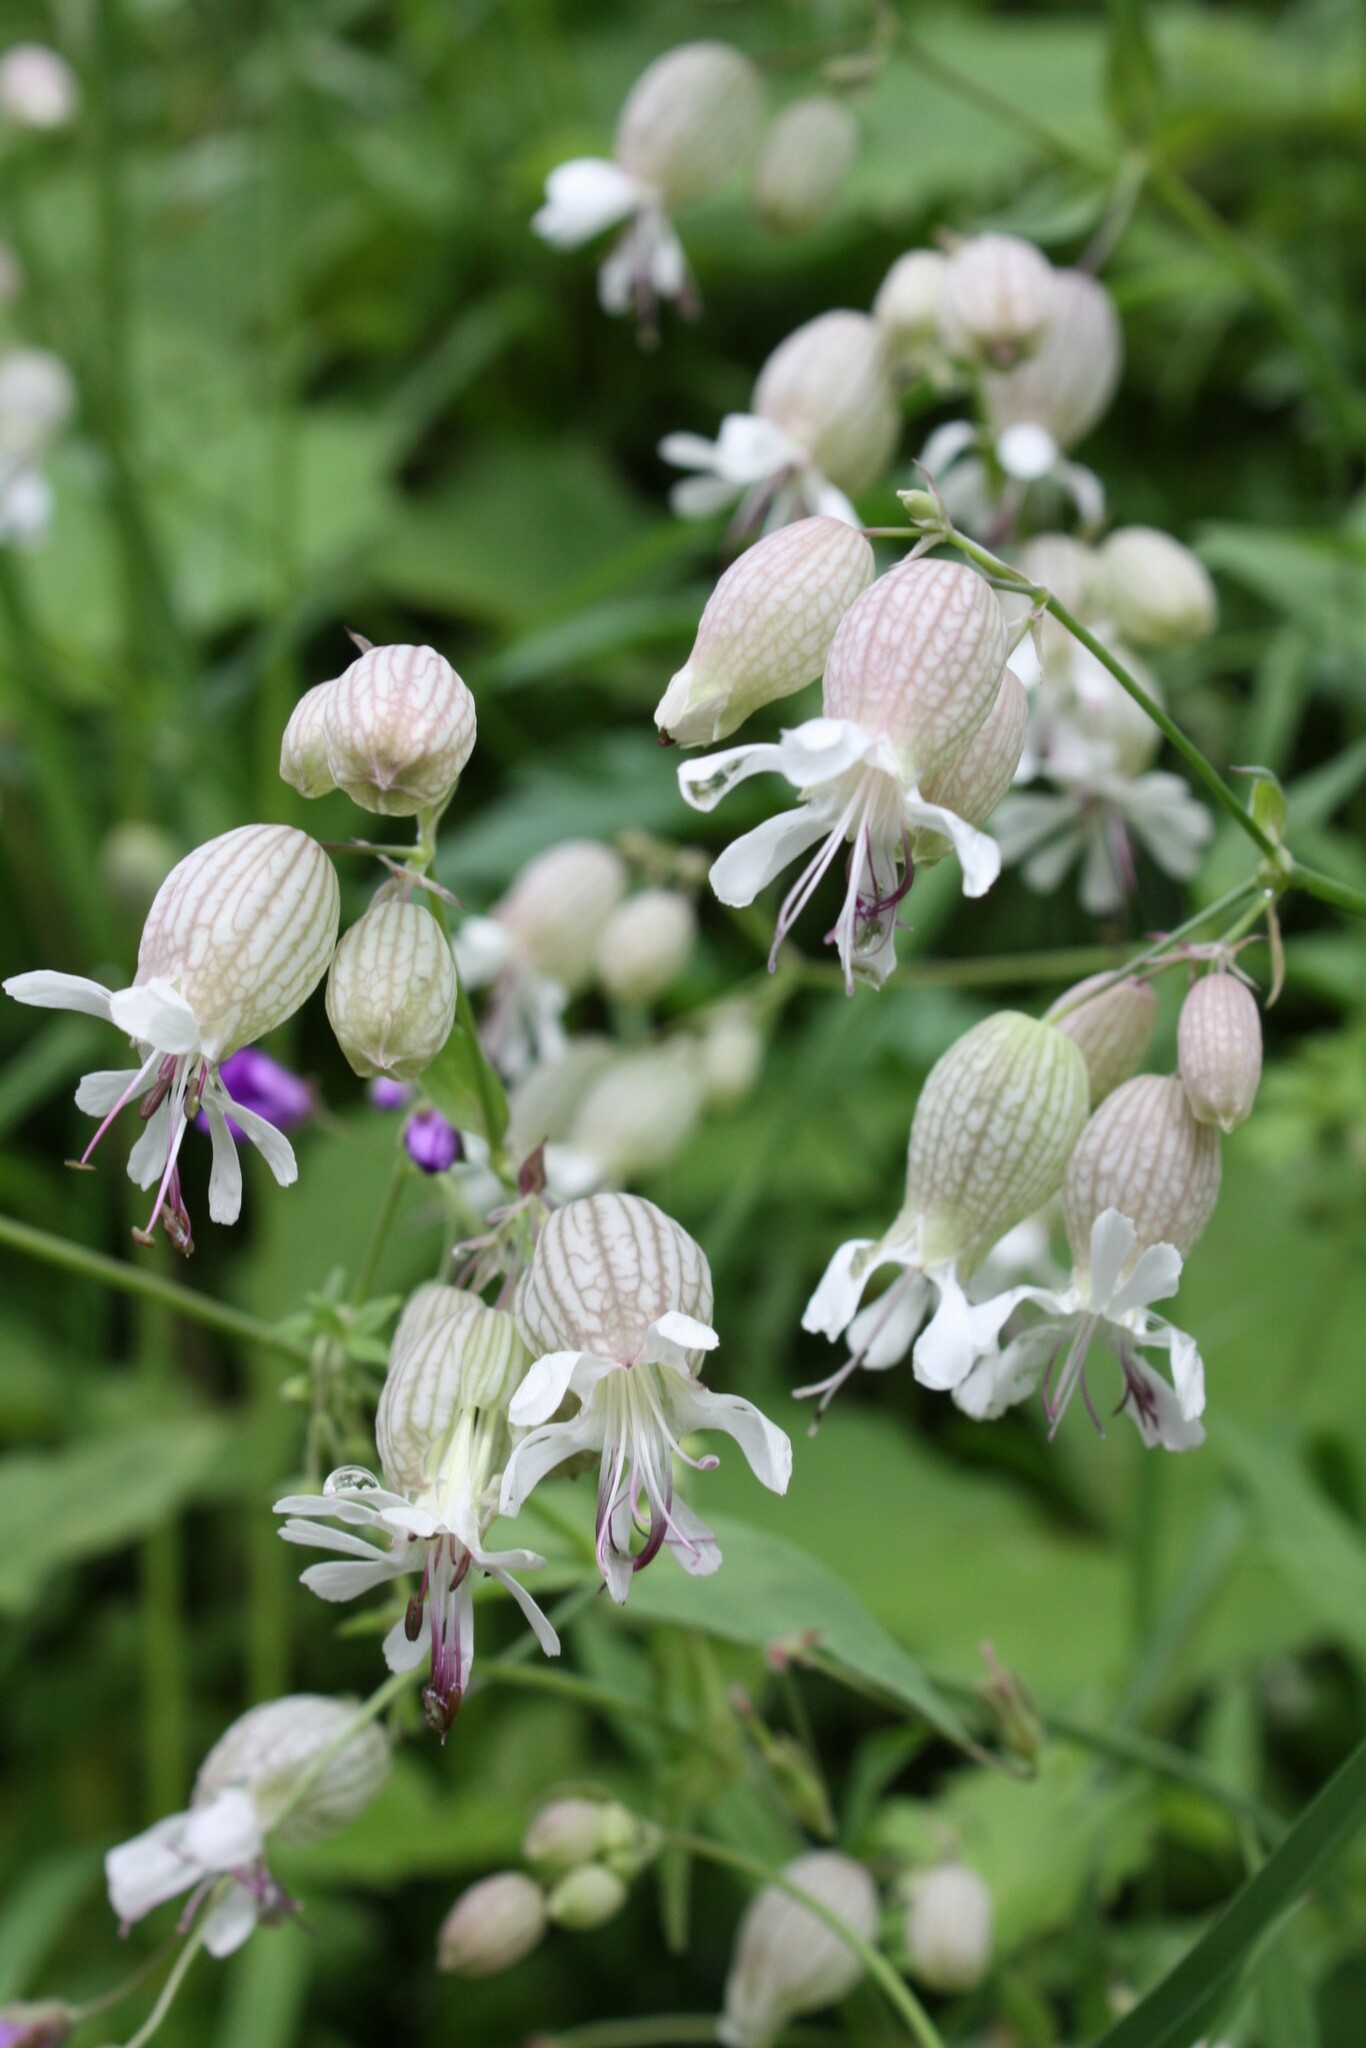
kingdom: Plantae
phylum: Tracheophyta
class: Magnoliopsida
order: Caryophyllales
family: Caryophyllaceae
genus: Silene
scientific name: Silene vulgaris
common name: Bladder campion
